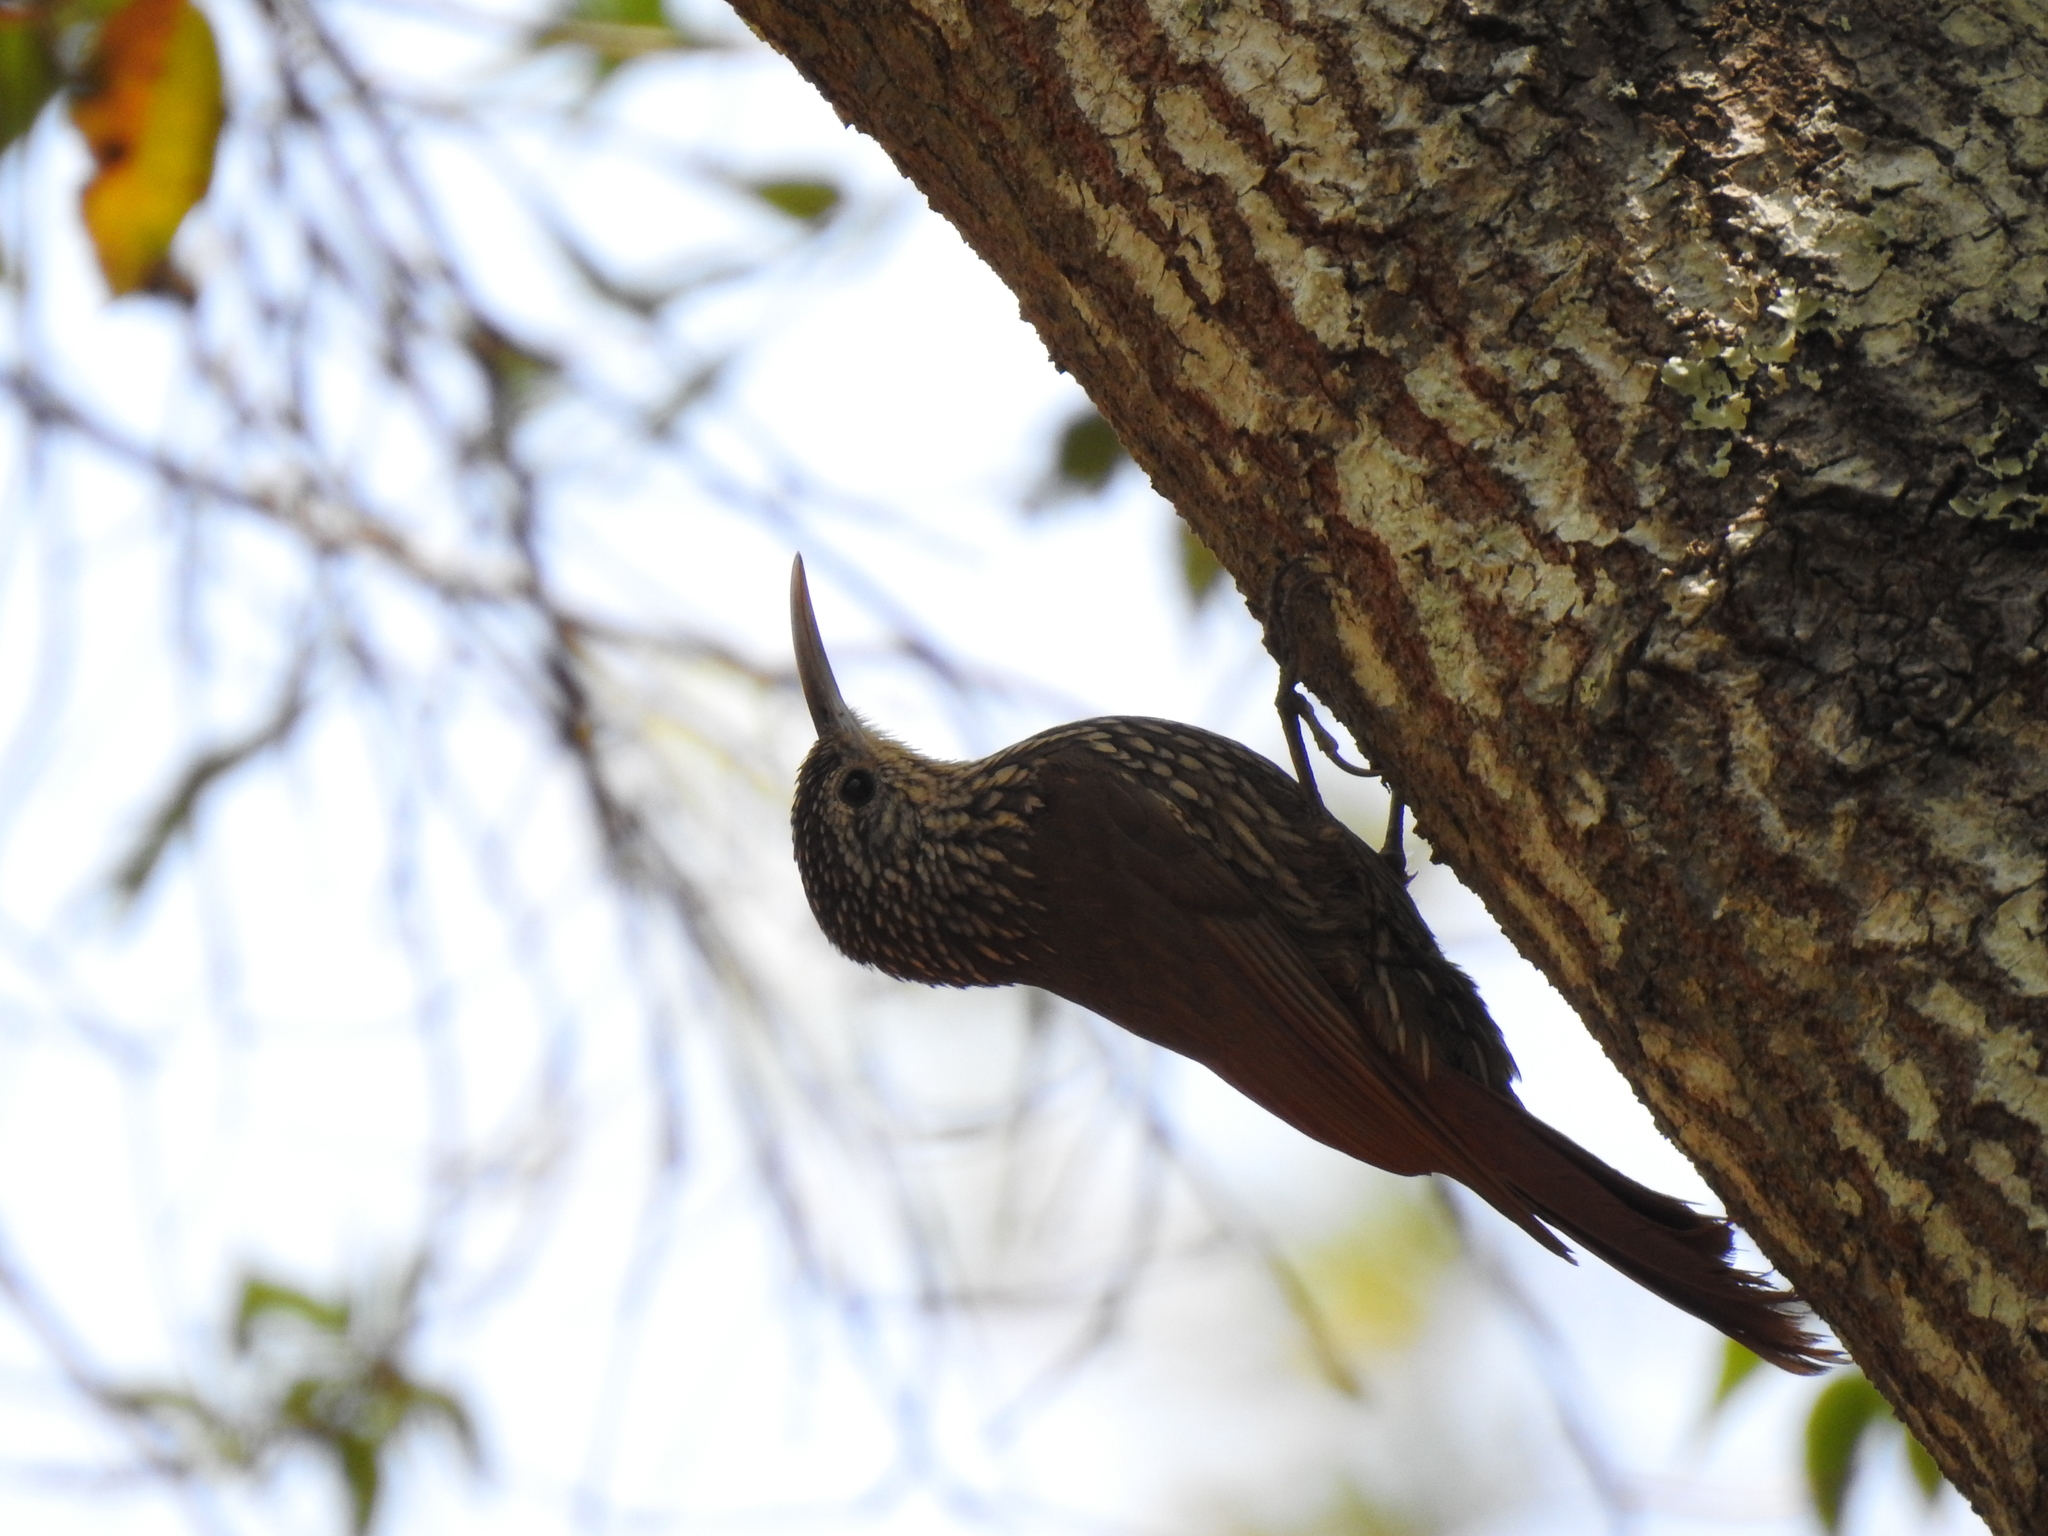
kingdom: Animalia
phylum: Chordata
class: Aves
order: Passeriformes
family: Furnariidae
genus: Lepidocolaptes
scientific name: Lepidocolaptes affinis
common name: Spot-crowned woodcreeper
